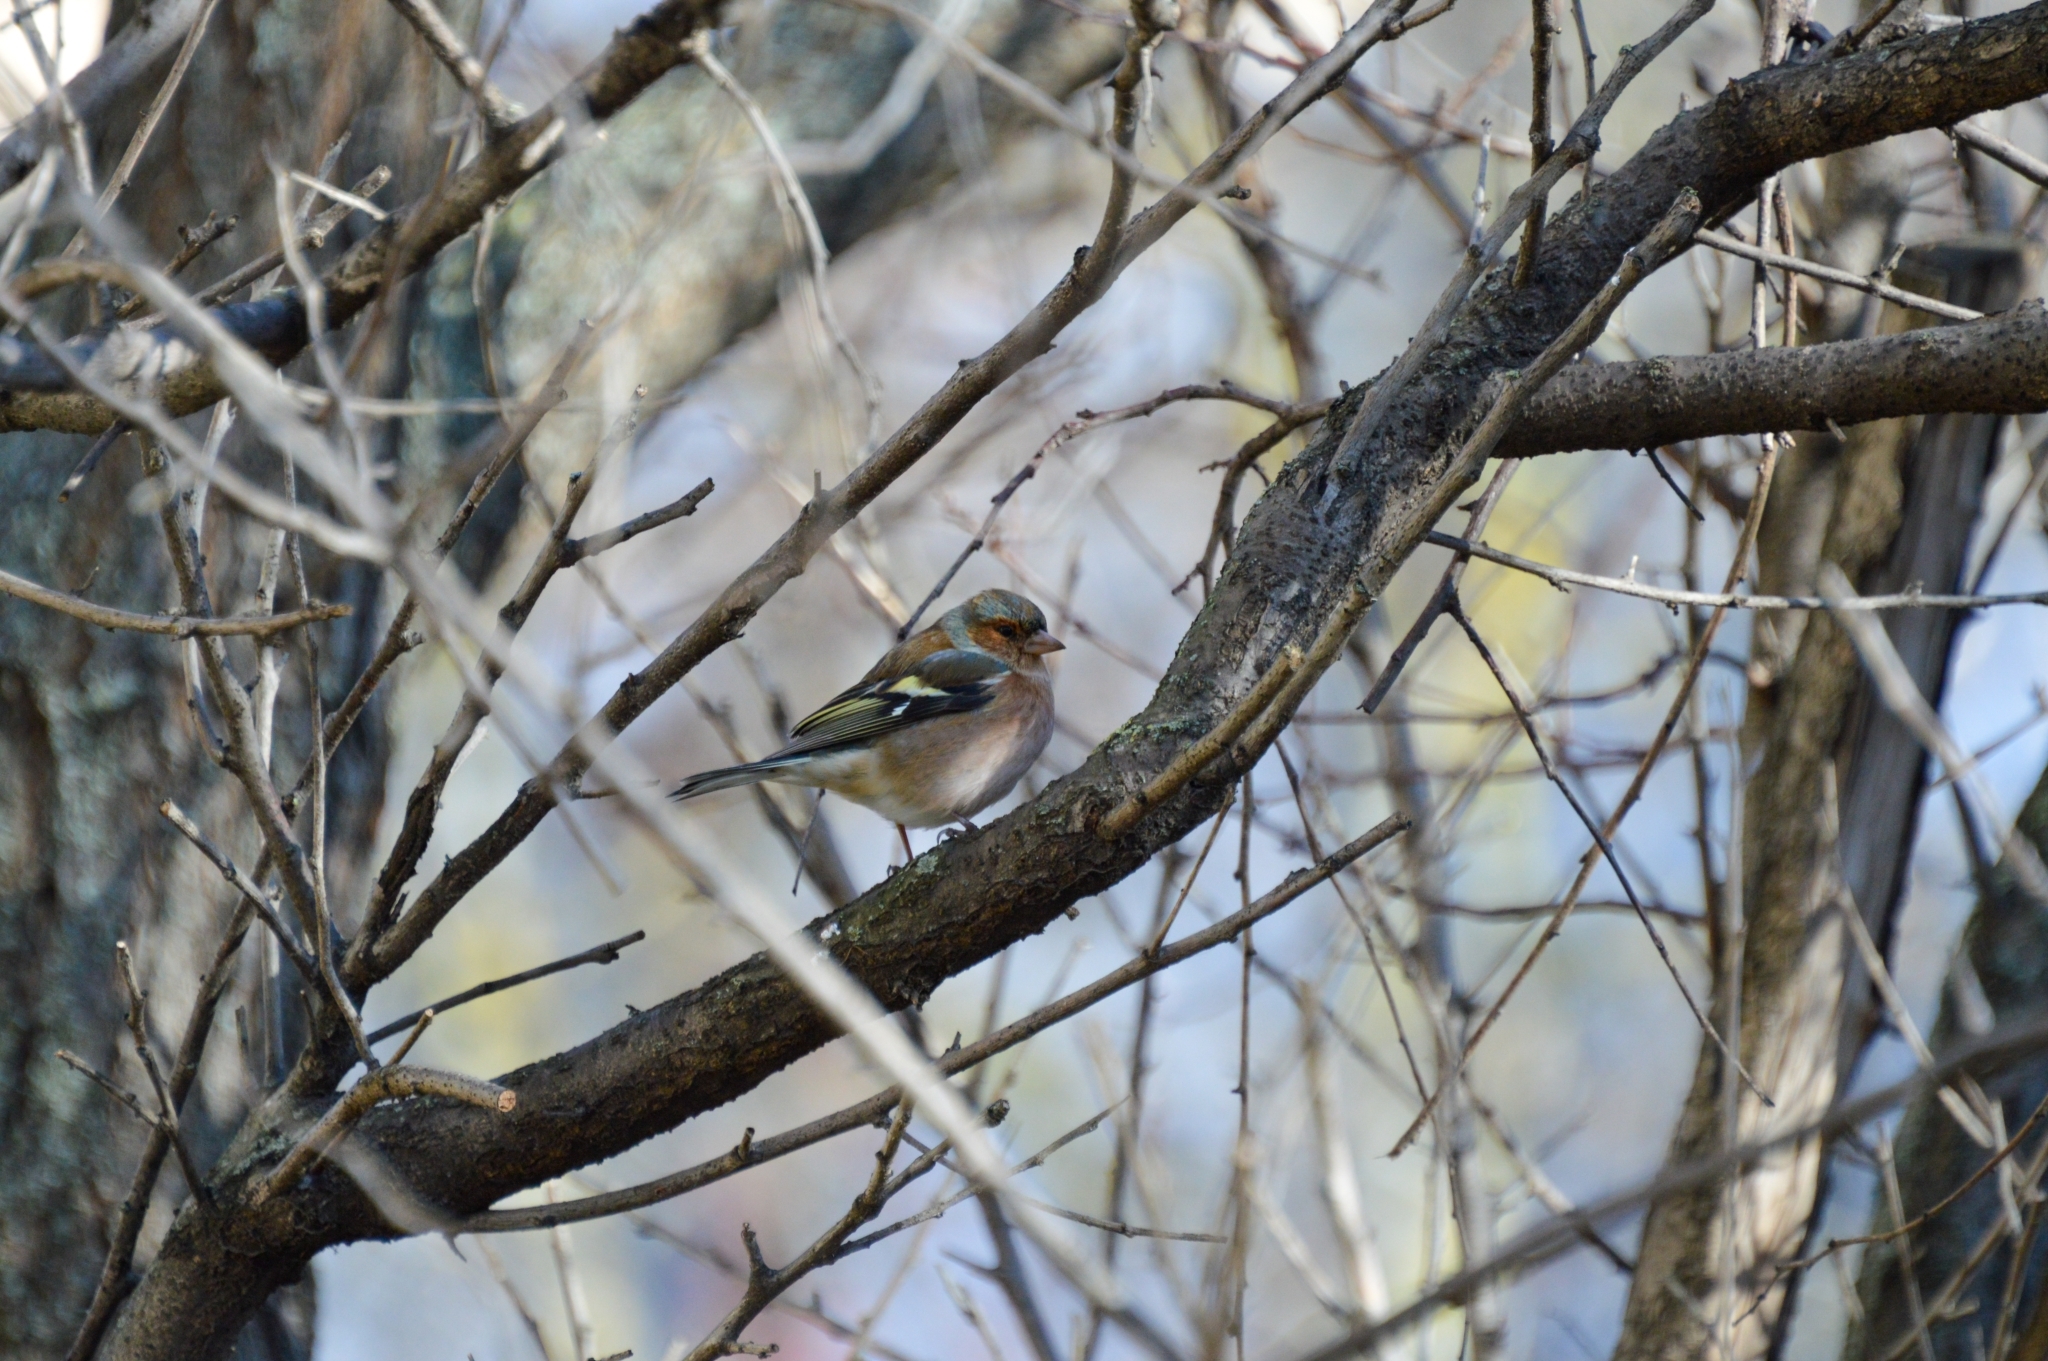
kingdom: Animalia
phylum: Chordata
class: Aves
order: Passeriformes
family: Fringillidae
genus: Fringilla
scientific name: Fringilla coelebs
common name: Common chaffinch
